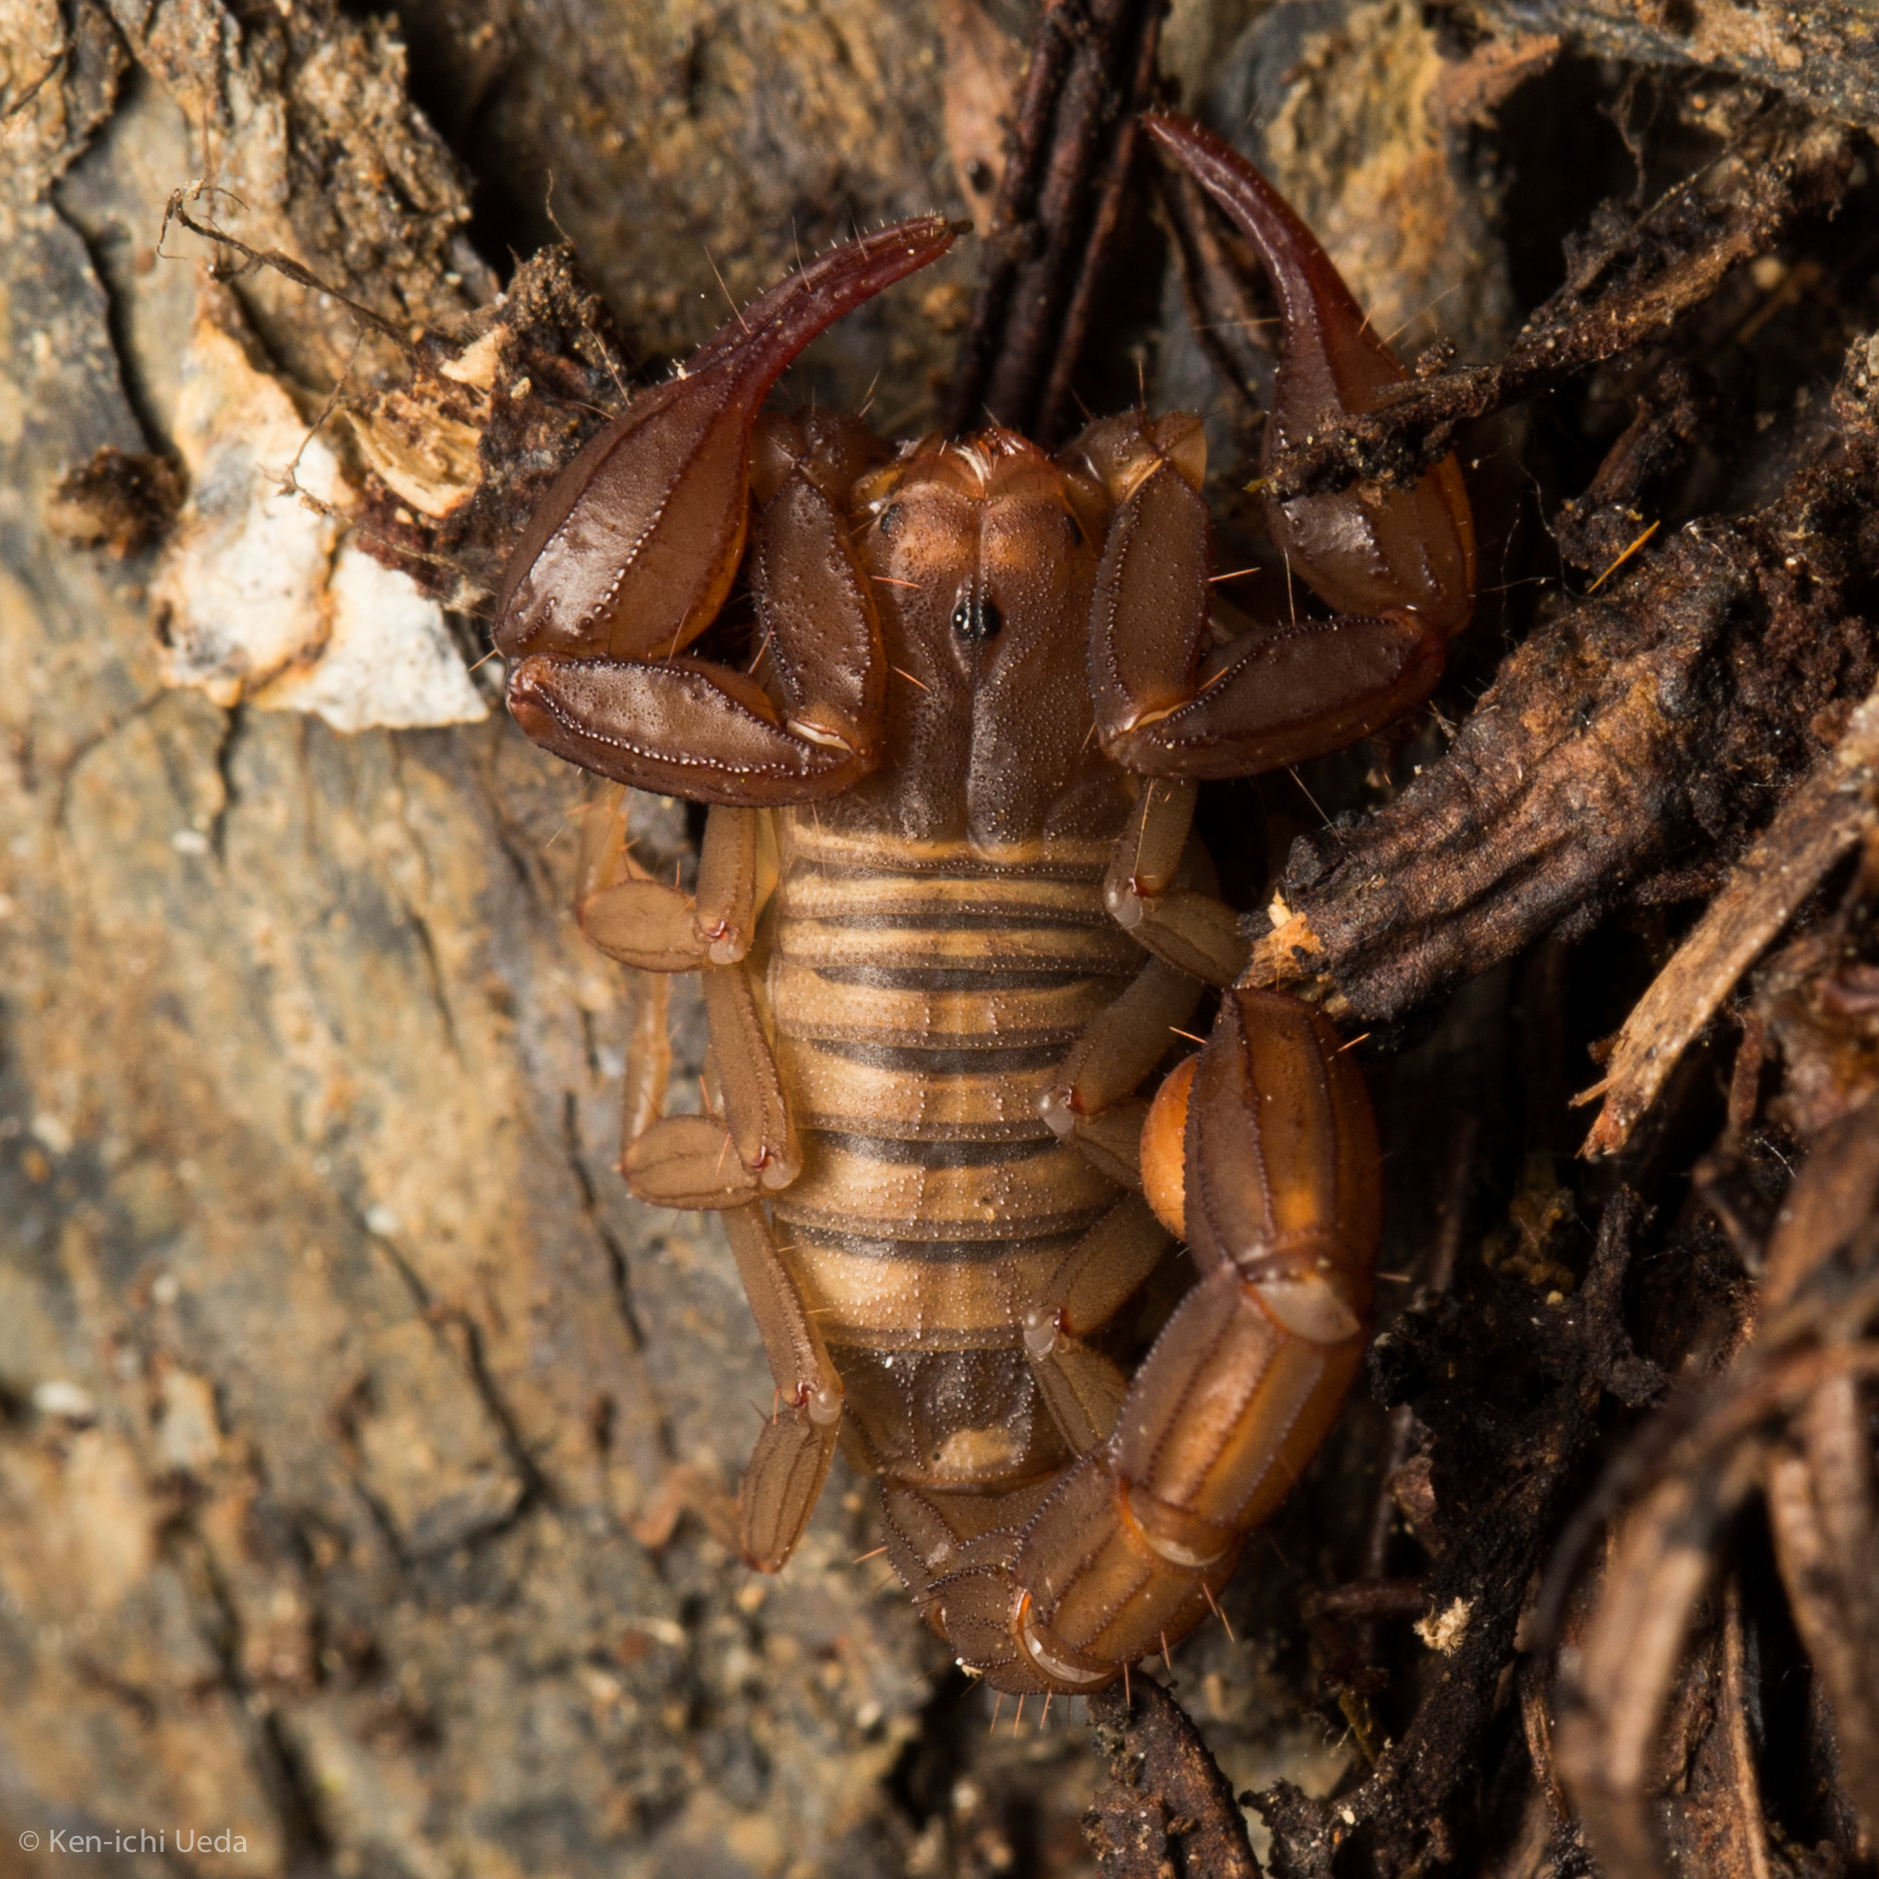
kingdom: Animalia
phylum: Arthropoda
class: Arachnida
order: Scorpiones
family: Vaejovidae
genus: Graemeloweus
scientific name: Graemeloweus iviei
